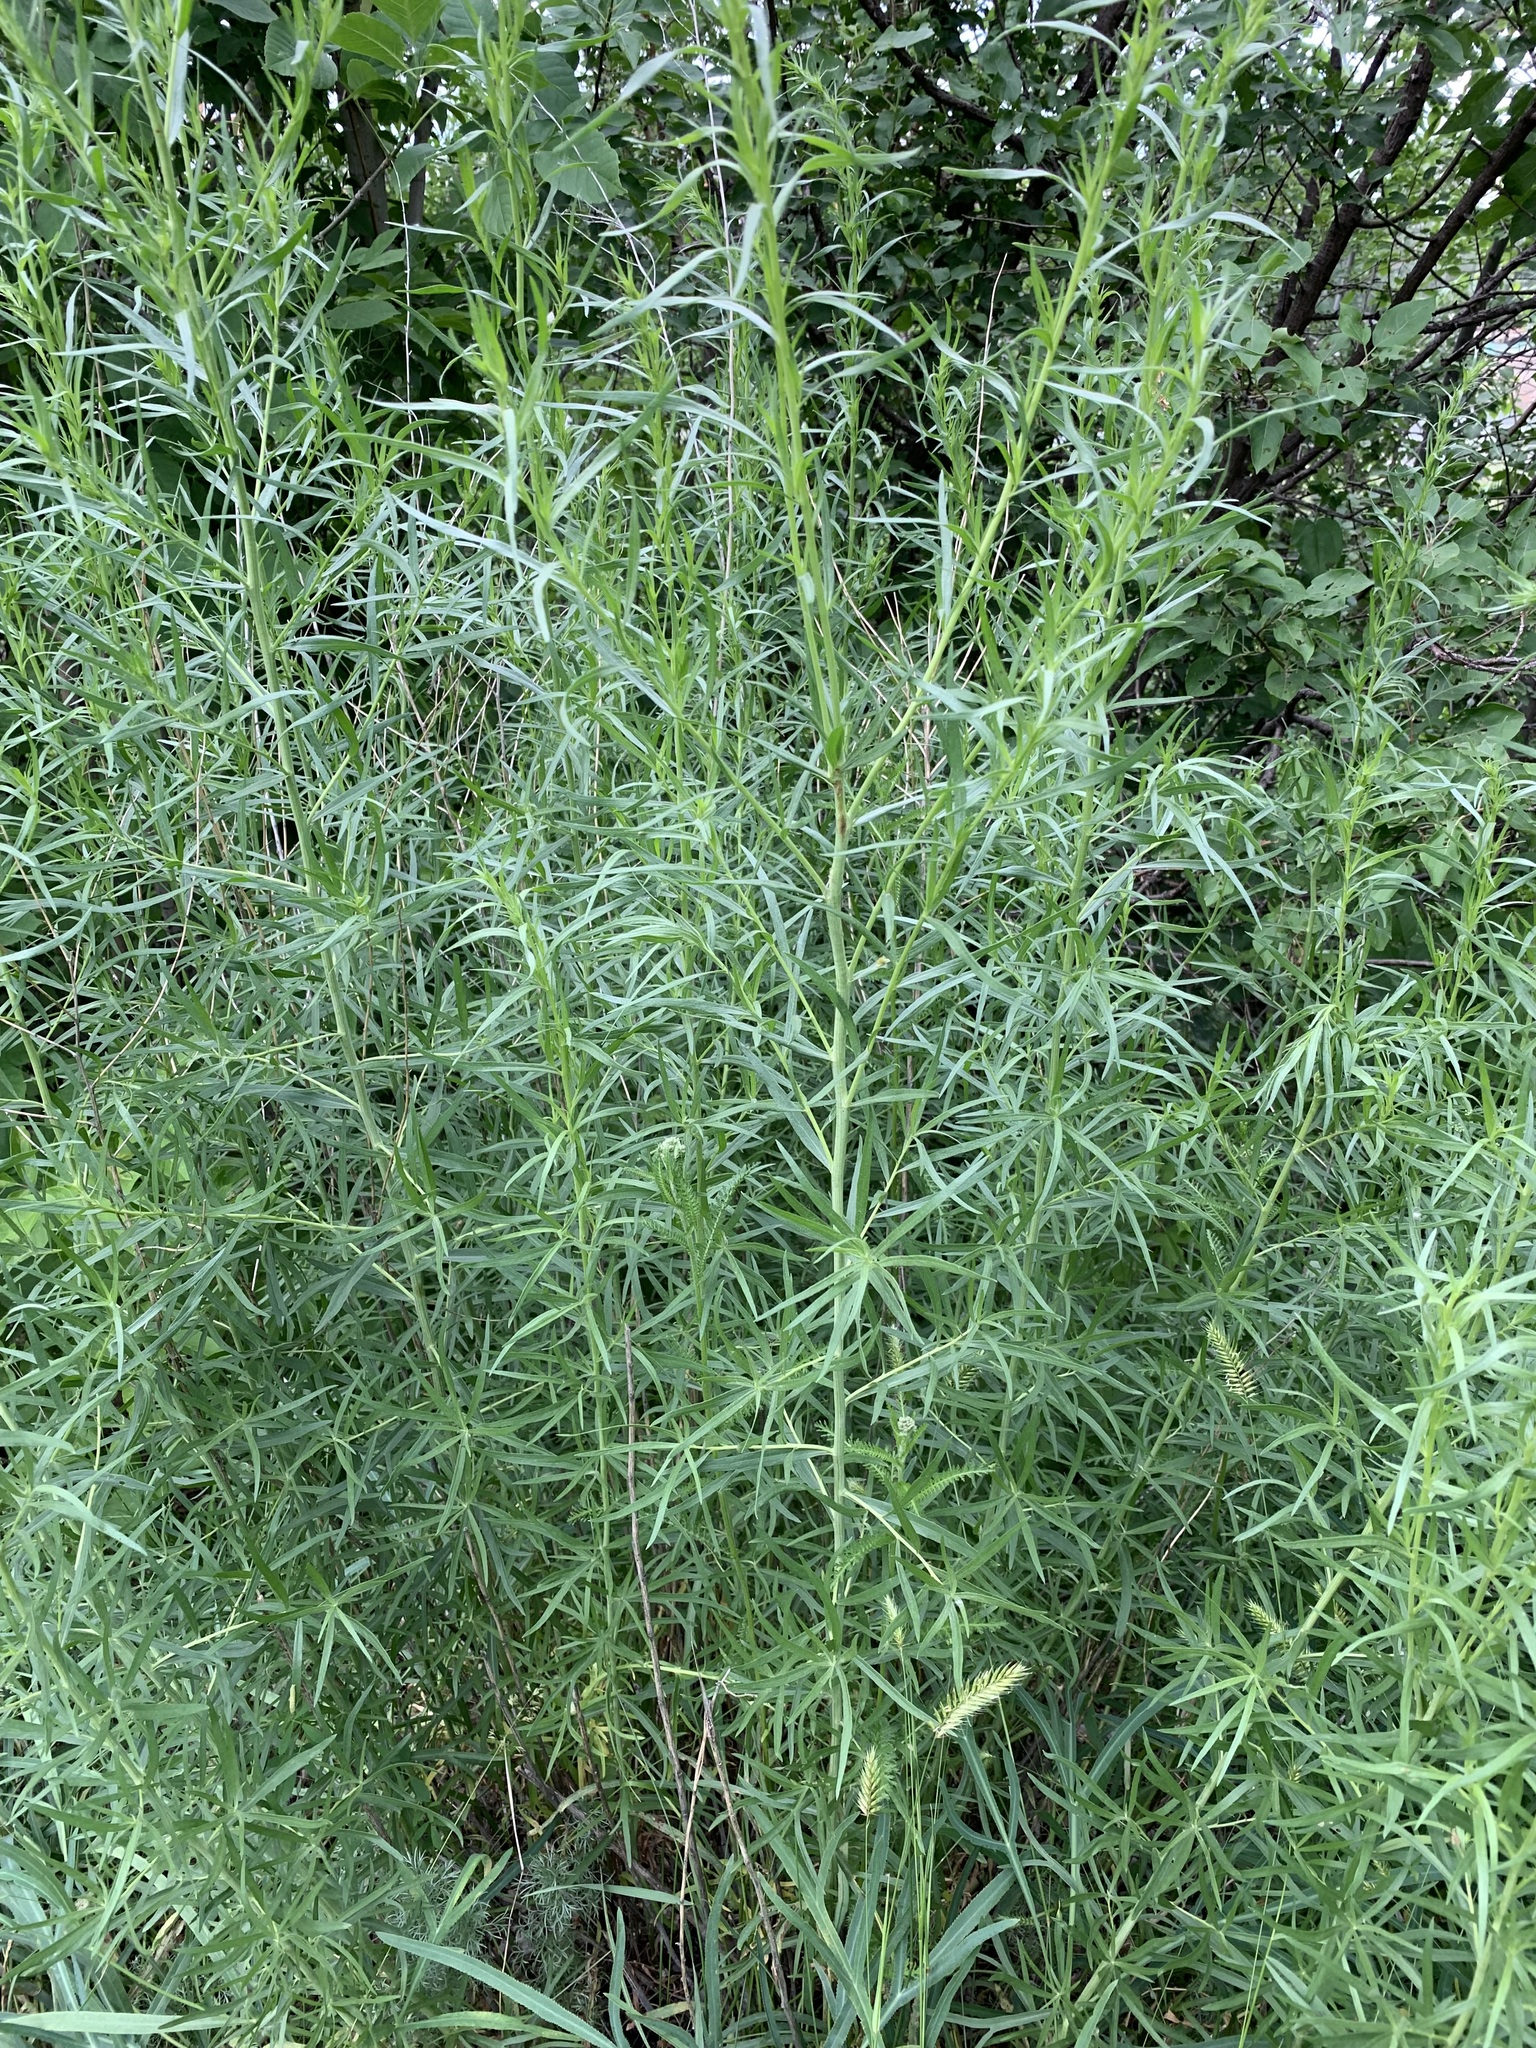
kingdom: Plantae
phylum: Tracheophyta
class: Magnoliopsida
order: Asterales
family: Asteraceae
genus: Artemisia
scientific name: Artemisia dracunculus
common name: Tarragon
